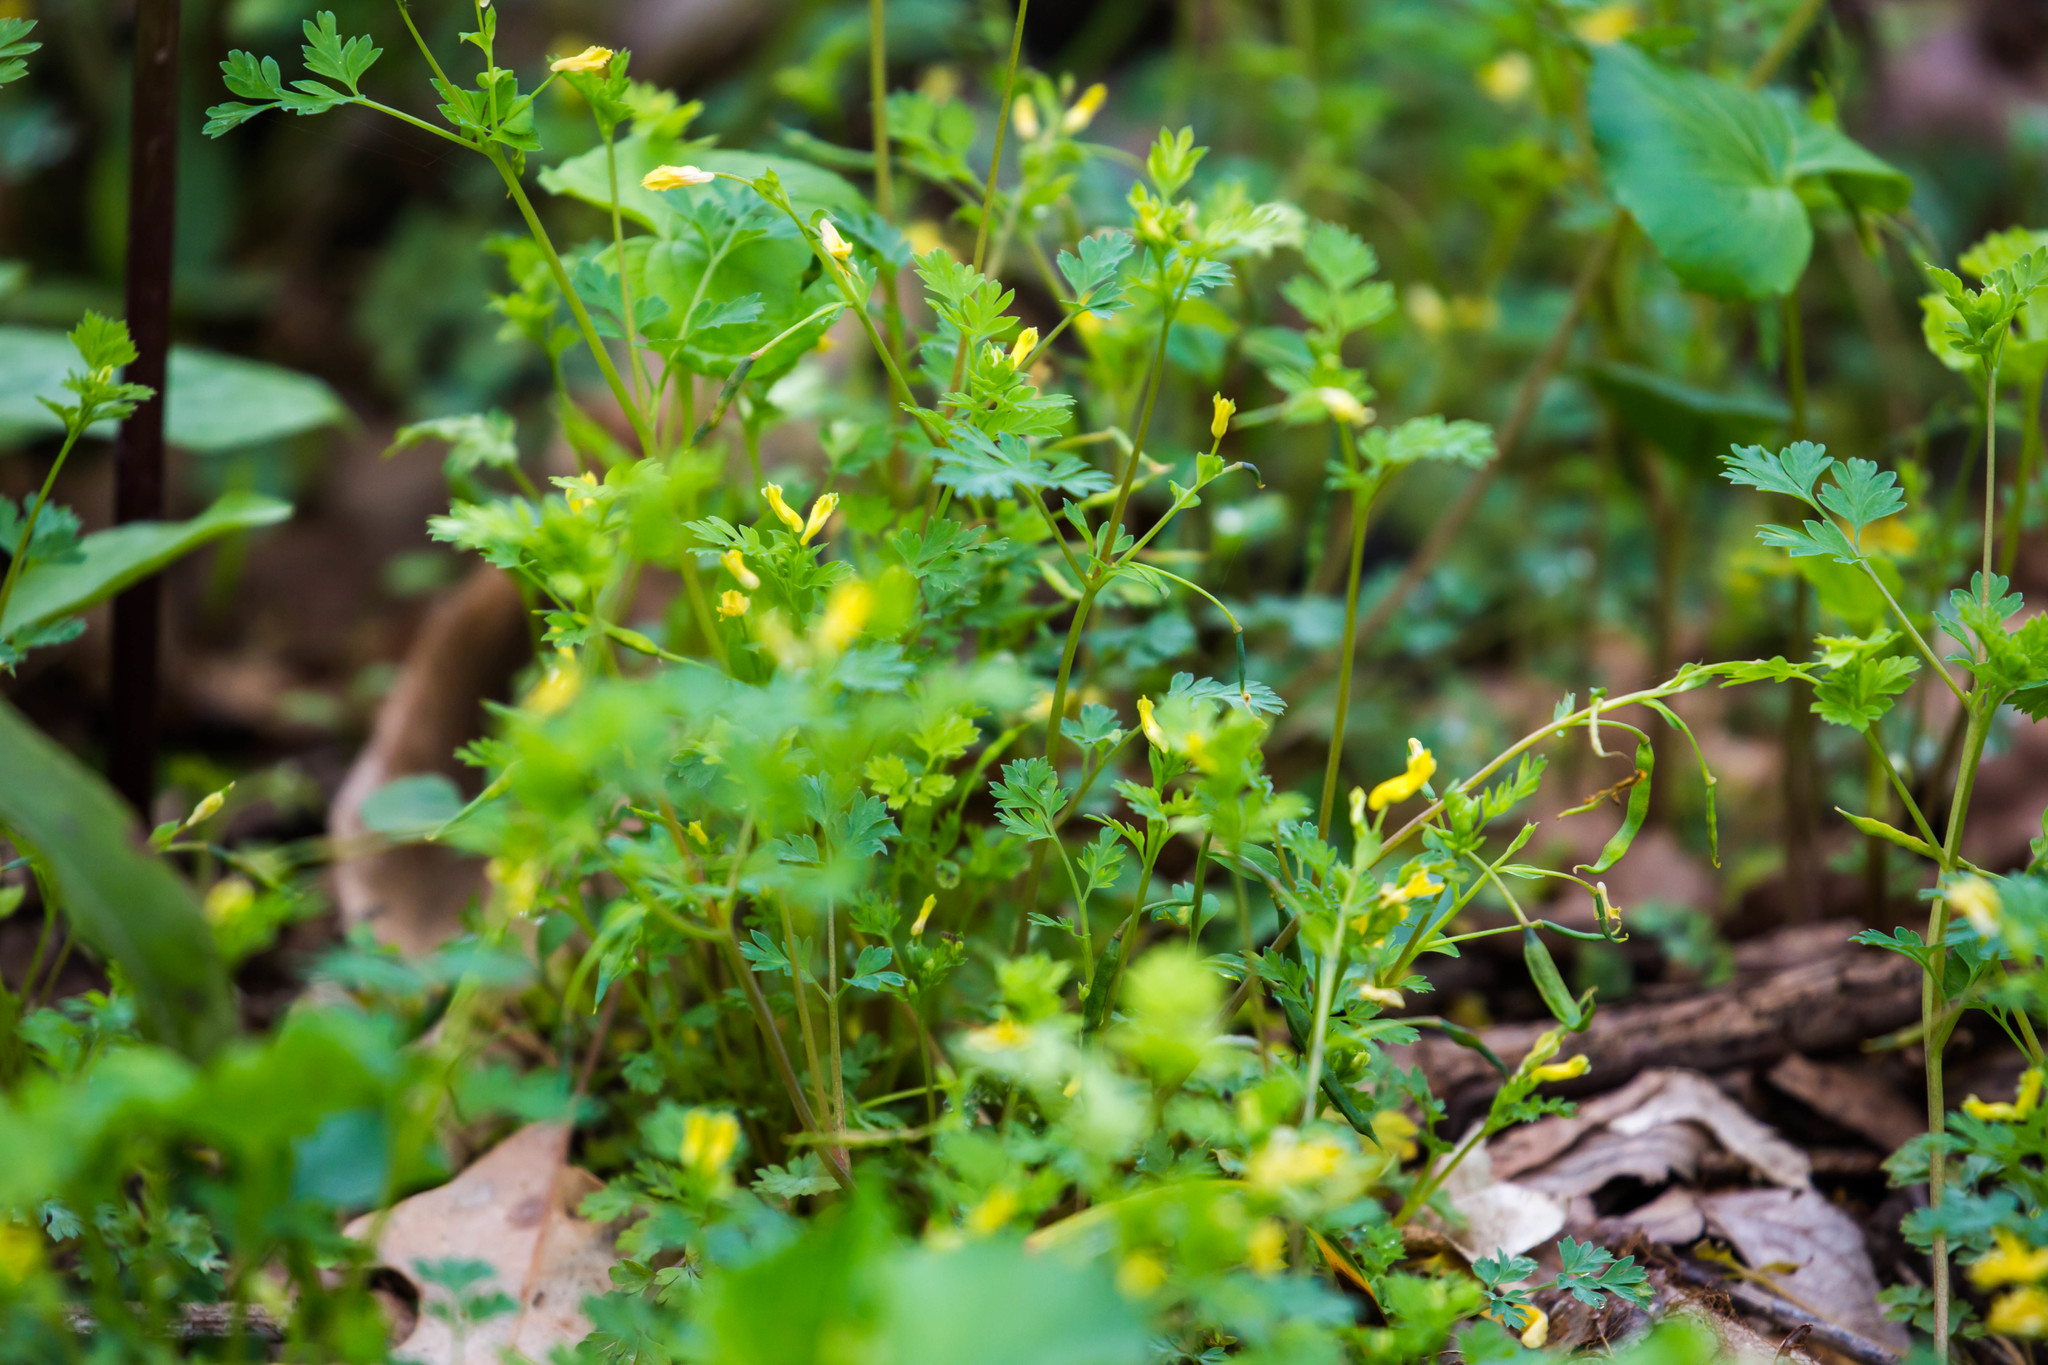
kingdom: Plantae
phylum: Tracheophyta
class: Magnoliopsida
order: Ranunculales
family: Papaveraceae
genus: Corydalis
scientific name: Corydalis flavula
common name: Yellow corydalis
